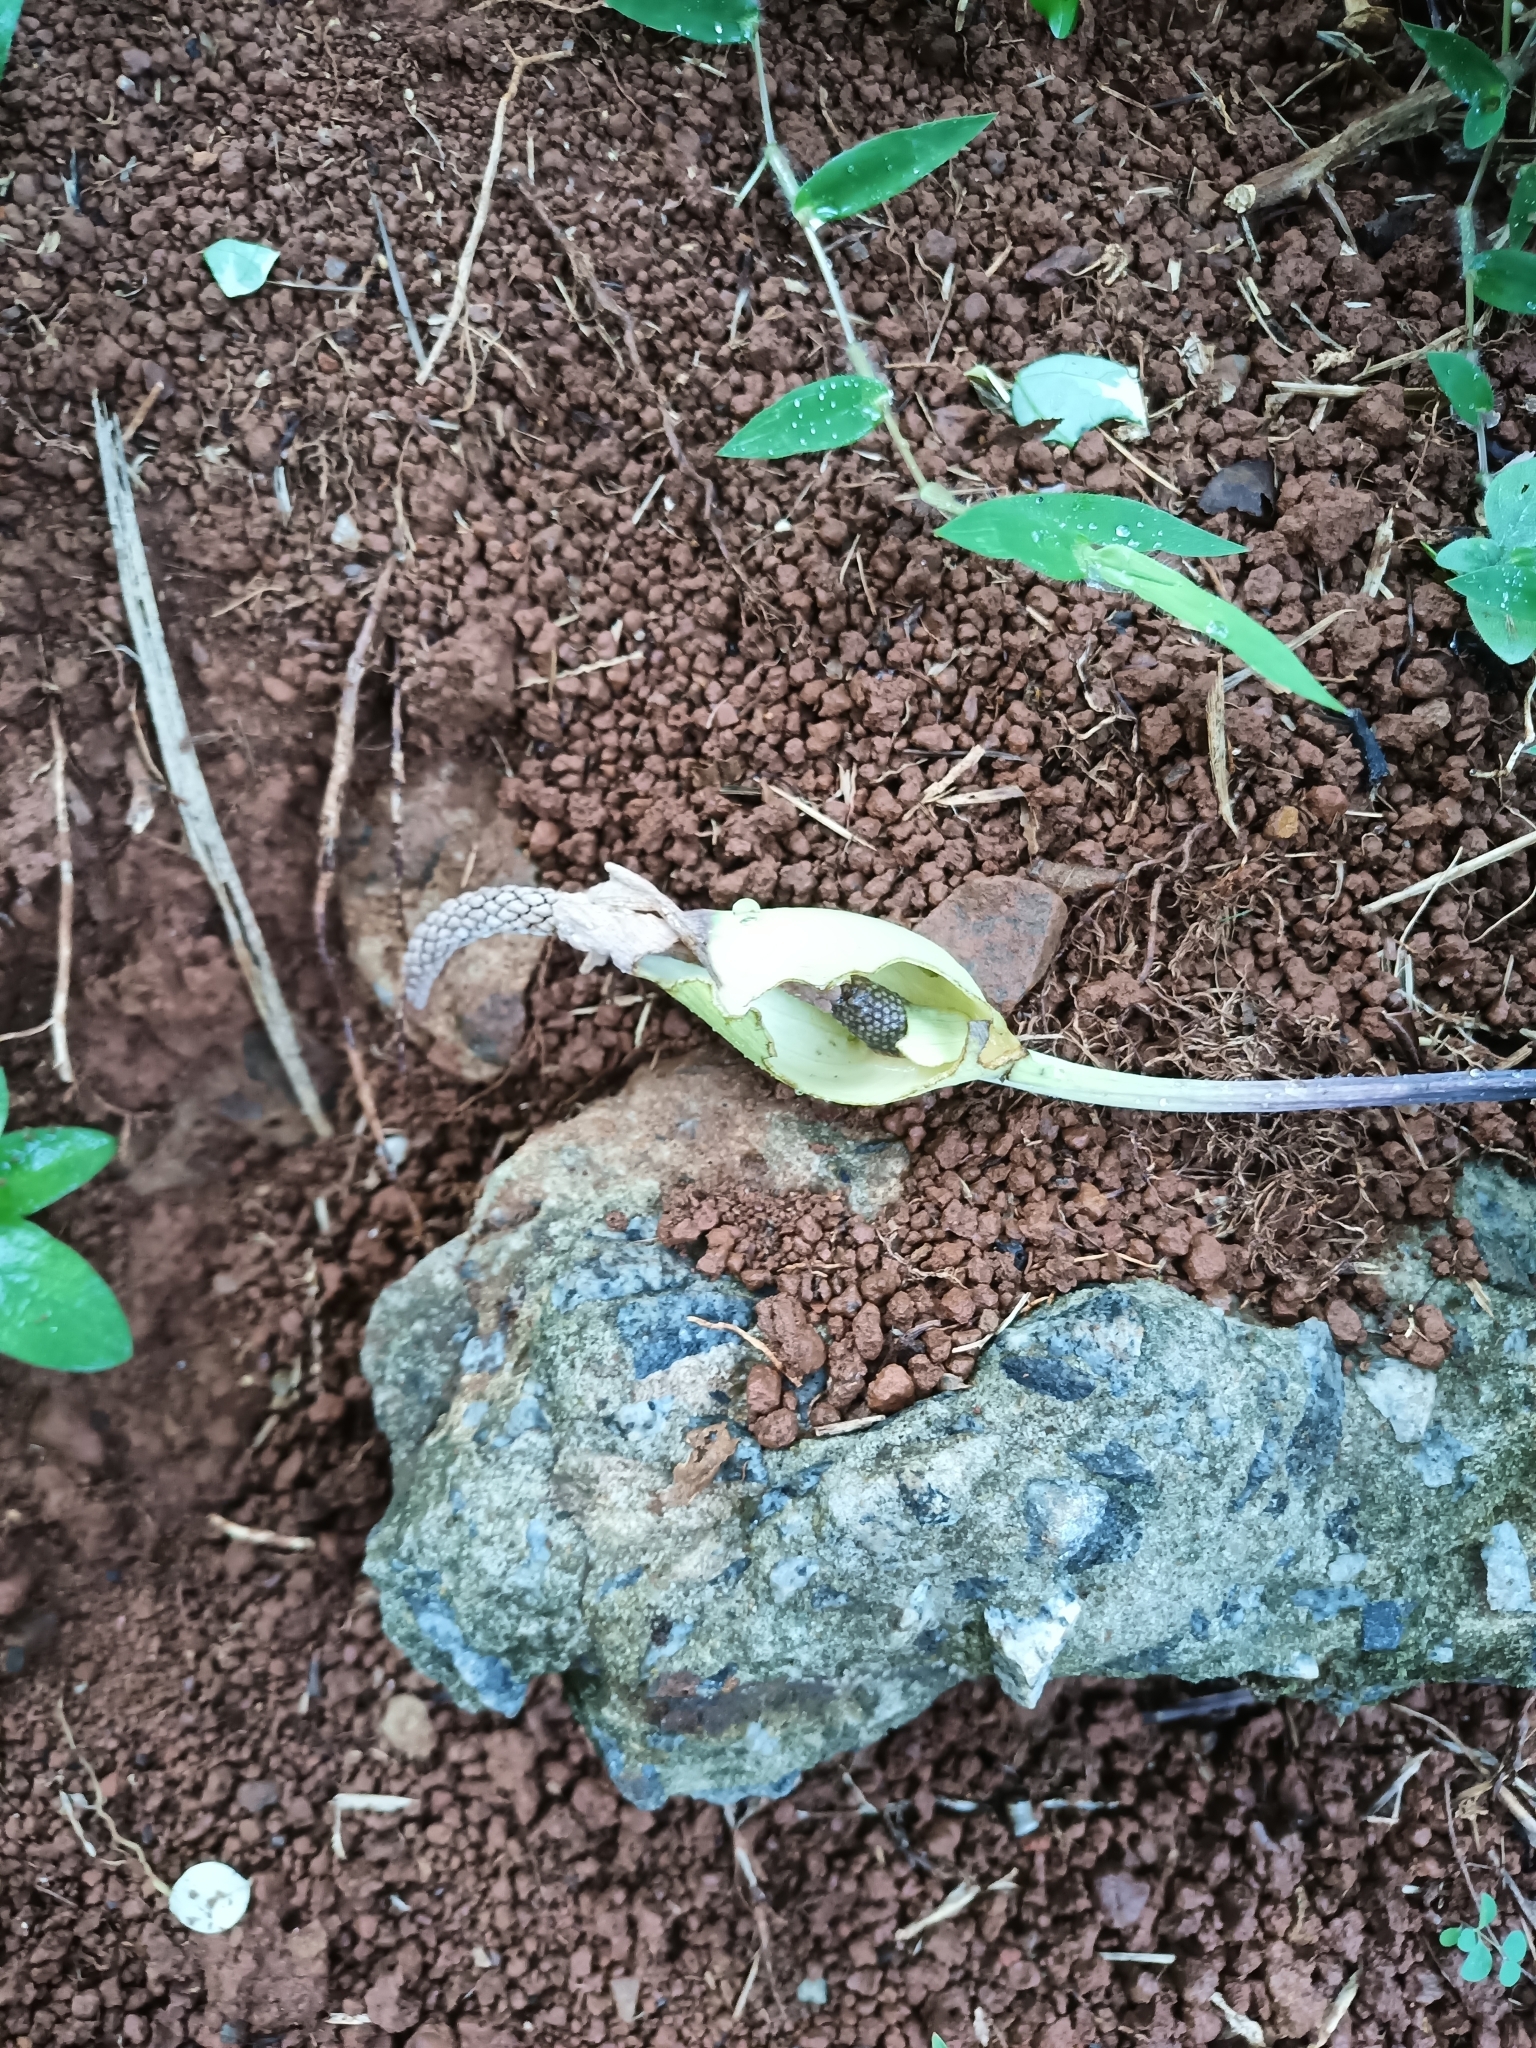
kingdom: Plantae
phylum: Tracheophyta
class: Liliopsida
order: Alismatales
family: Araceae
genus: Caladium
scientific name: Caladium bicolor
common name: Artist's pallet
